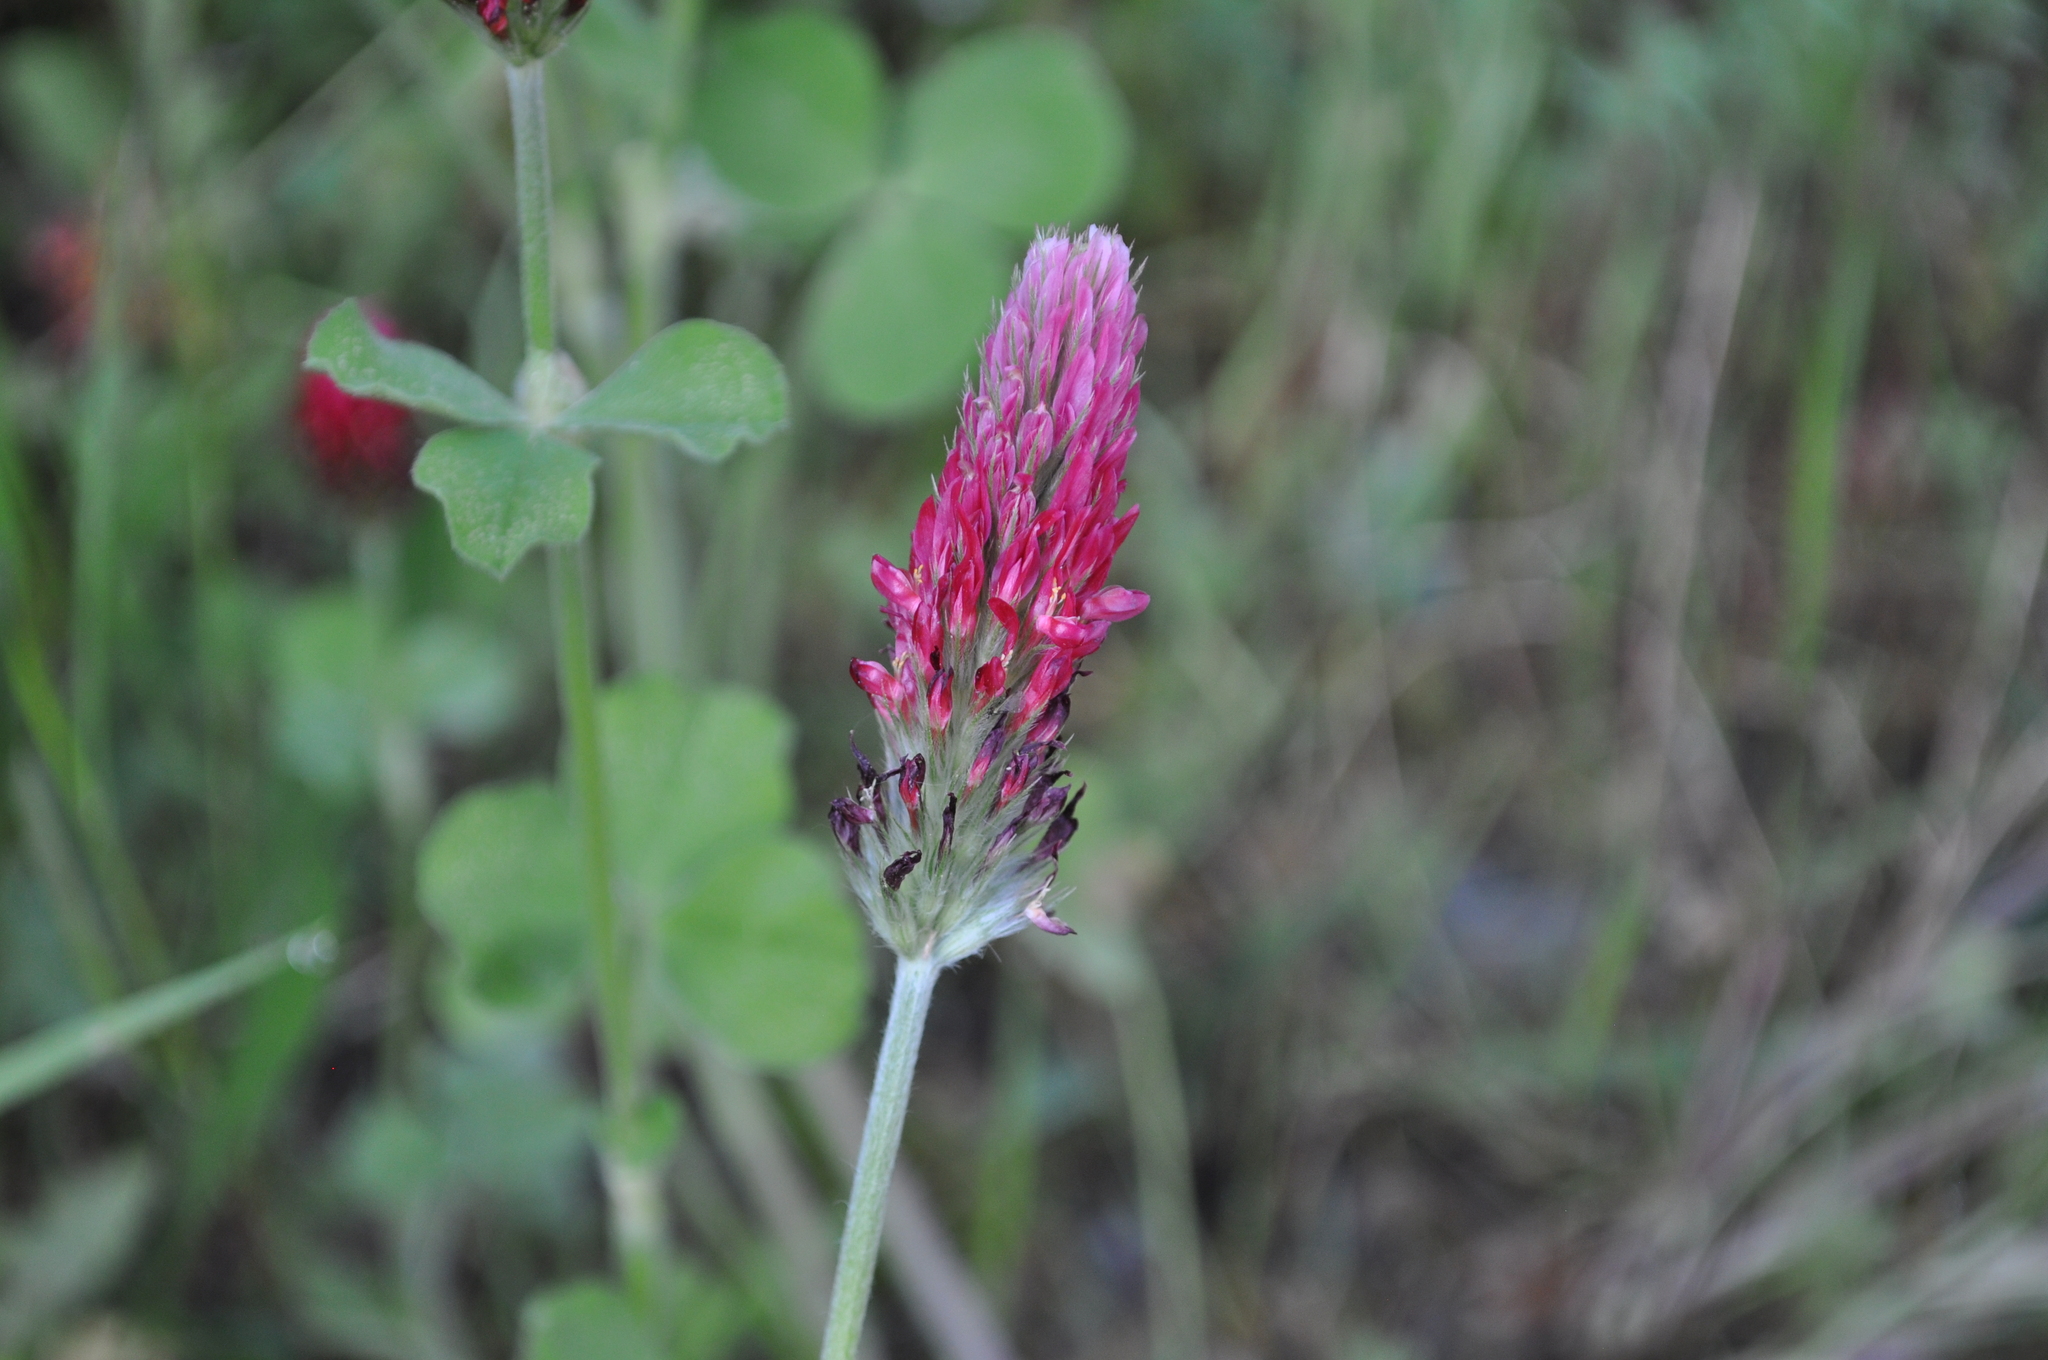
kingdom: Plantae
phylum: Tracheophyta
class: Magnoliopsida
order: Fabales
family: Fabaceae
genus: Trifolium
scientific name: Trifolium incarnatum
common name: Crimson clover
